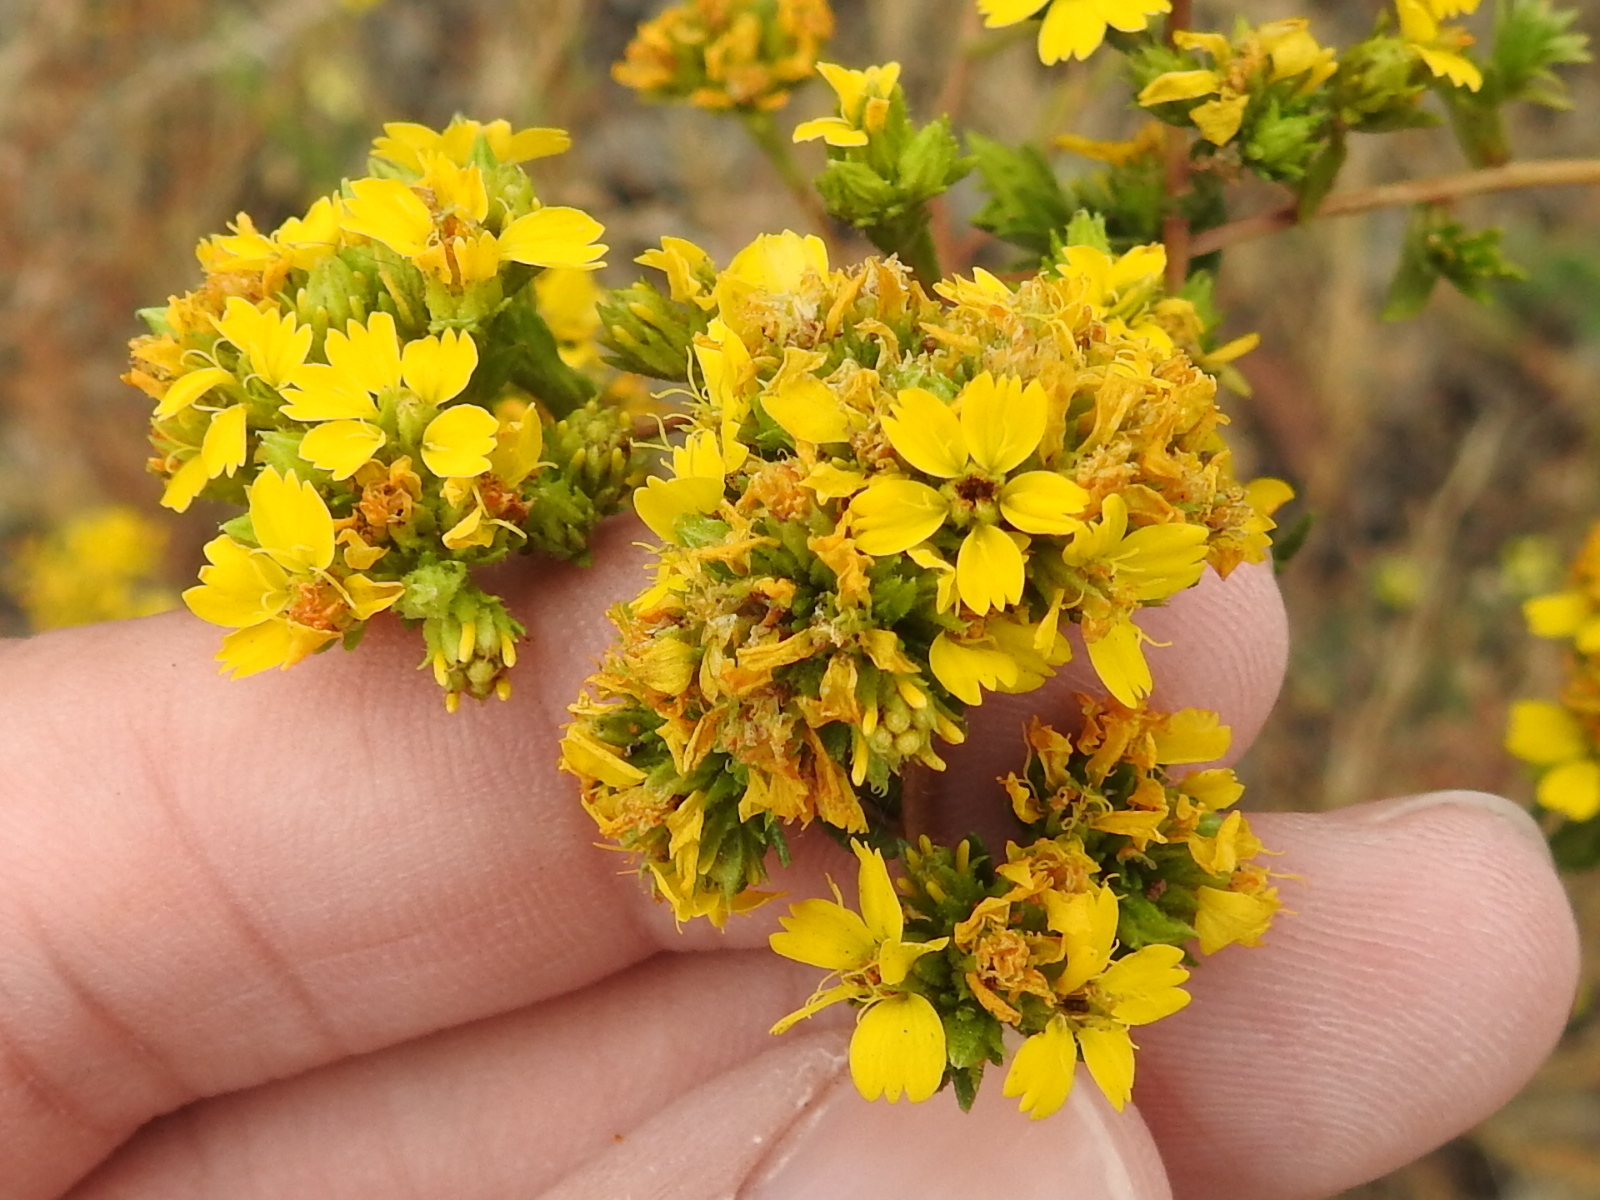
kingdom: Plantae
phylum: Tracheophyta
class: Magnoliopsida
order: Asterales
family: Asteraceae
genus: Deinandra
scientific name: Deinandra fasciculata
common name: Clustered tarweed
